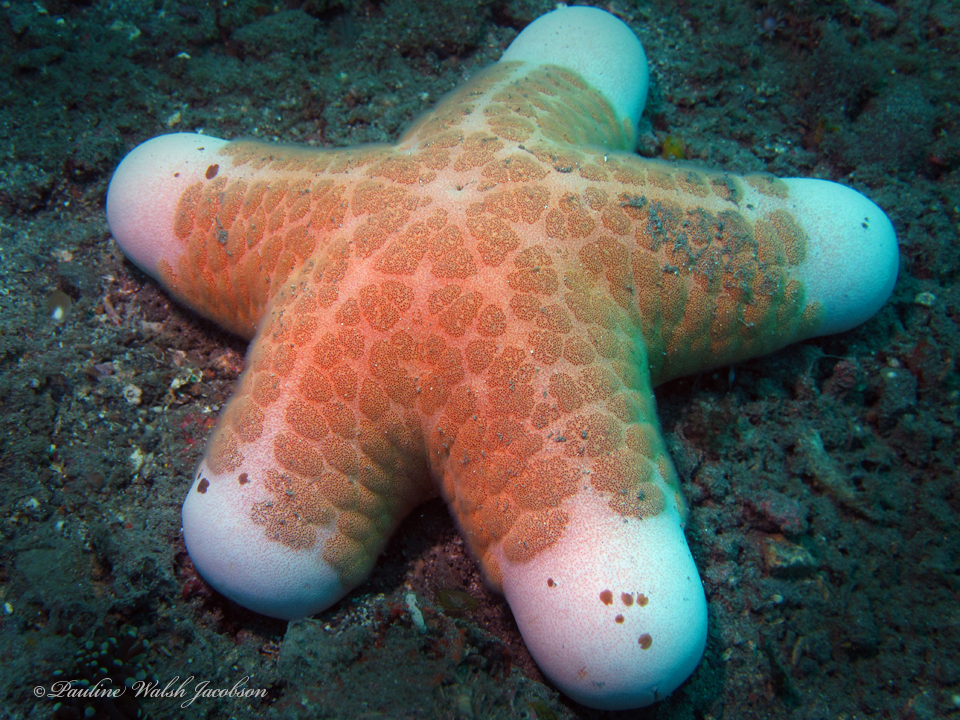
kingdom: Animalia
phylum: Echinodermata
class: Asteroidea
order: Valvatida
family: Oreasteridae
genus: Choriaster
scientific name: Choriaster granulatus
